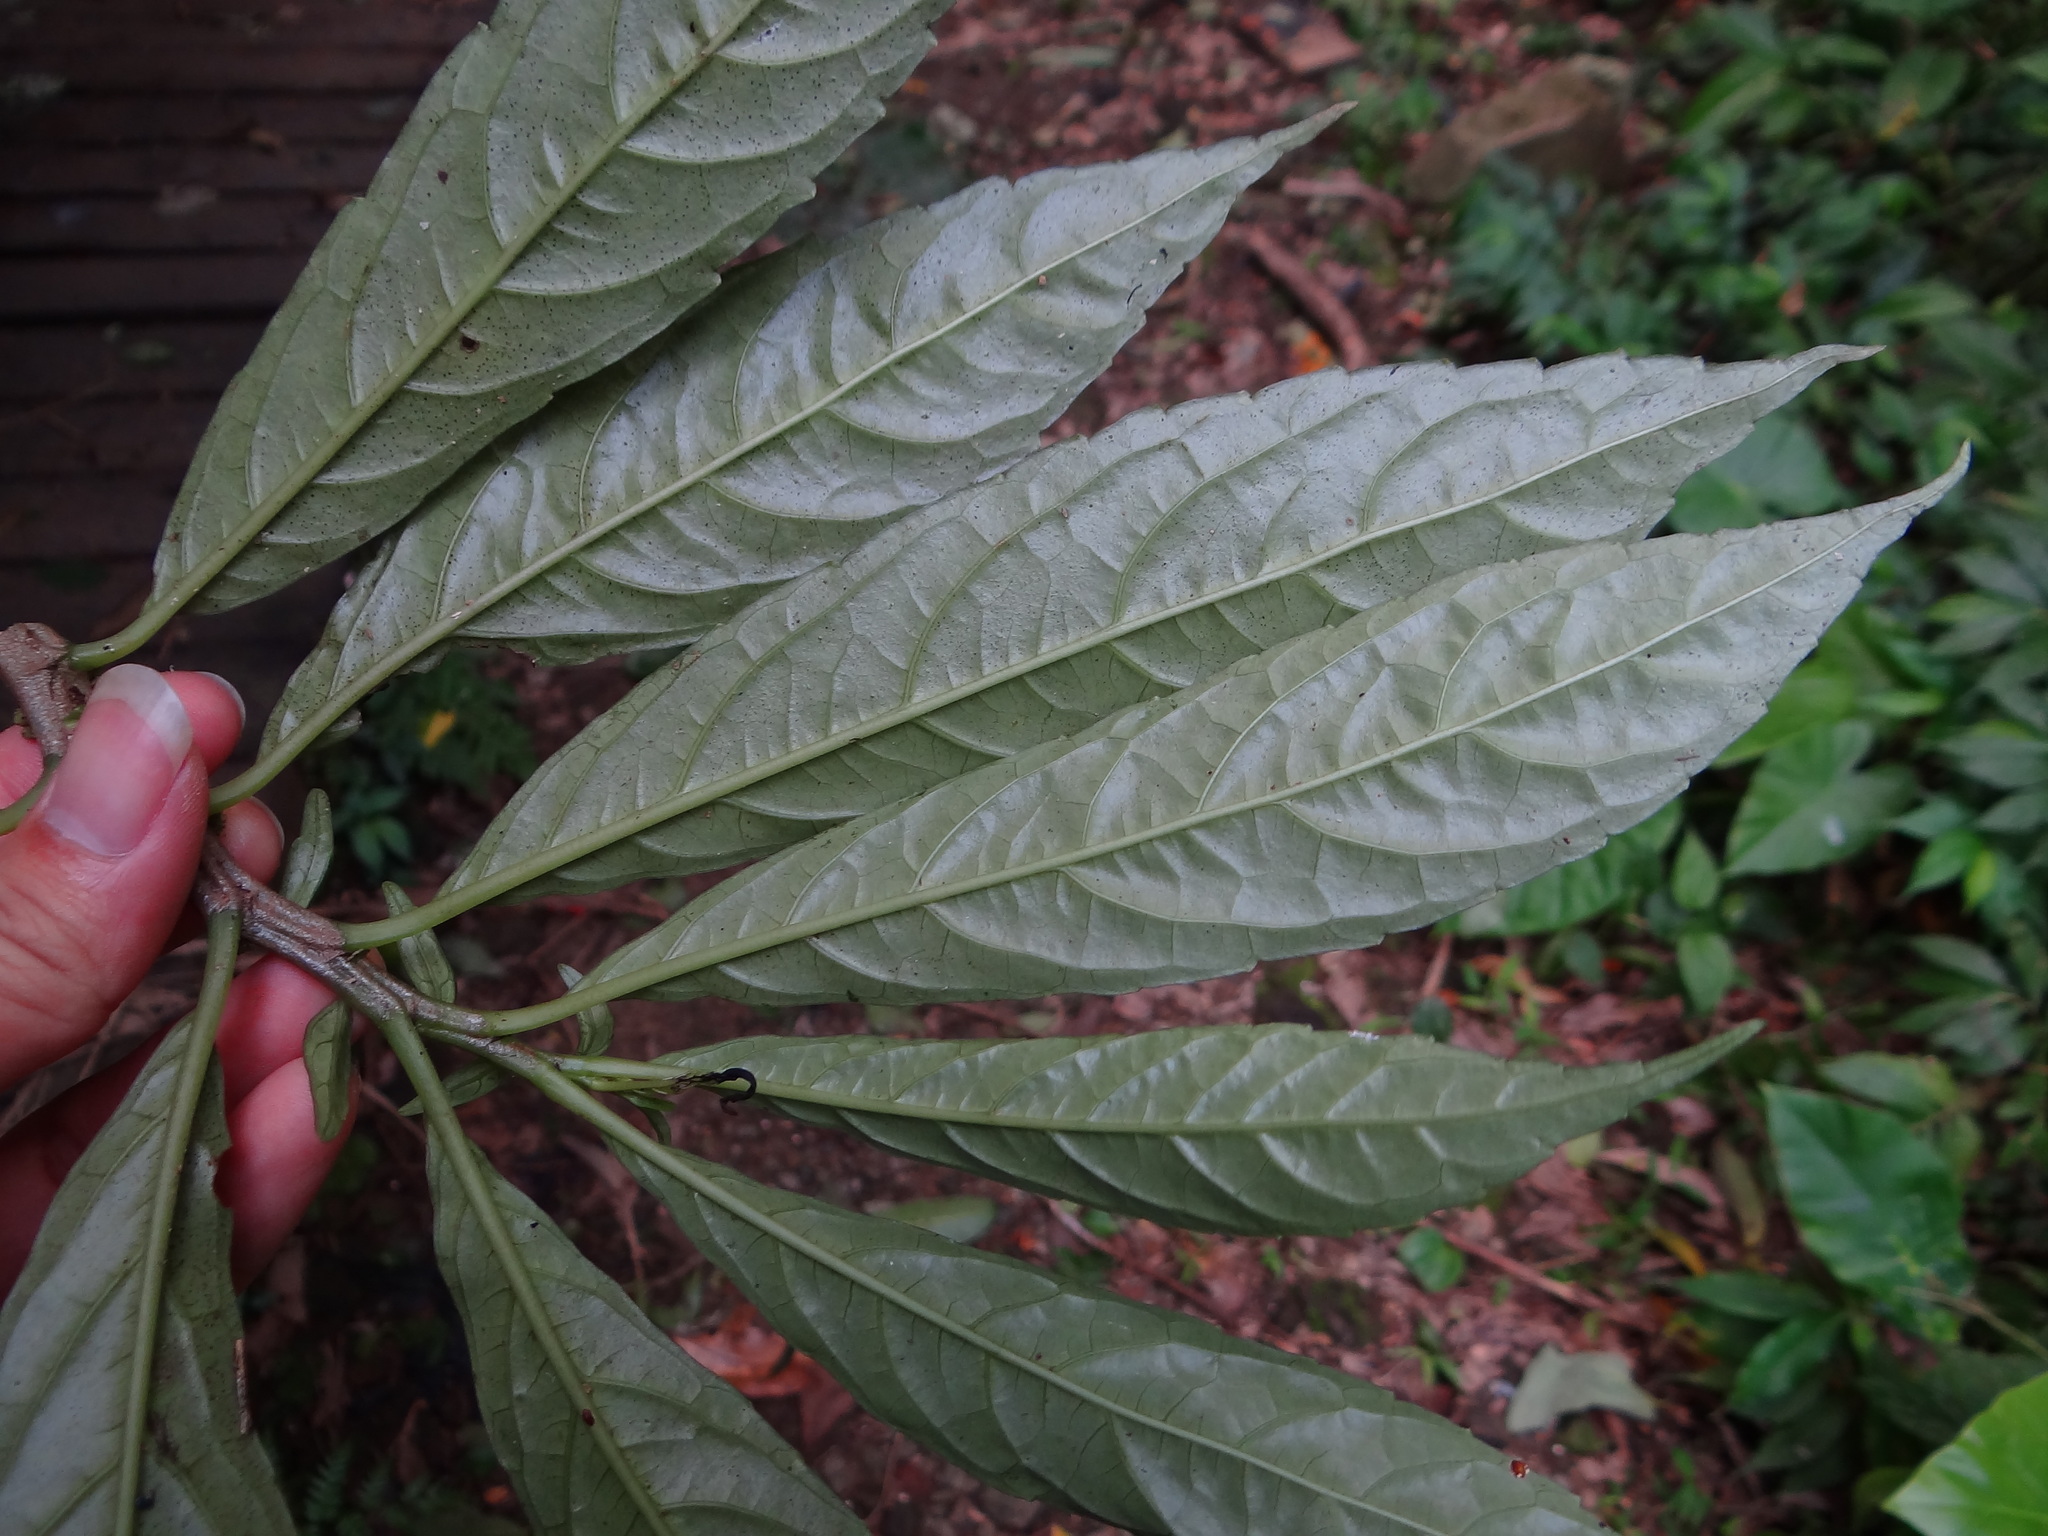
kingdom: Plantae
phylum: Tracheophyta
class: Magnoliopsida
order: Rosales
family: Urticaceae
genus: Procris
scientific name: Procris
